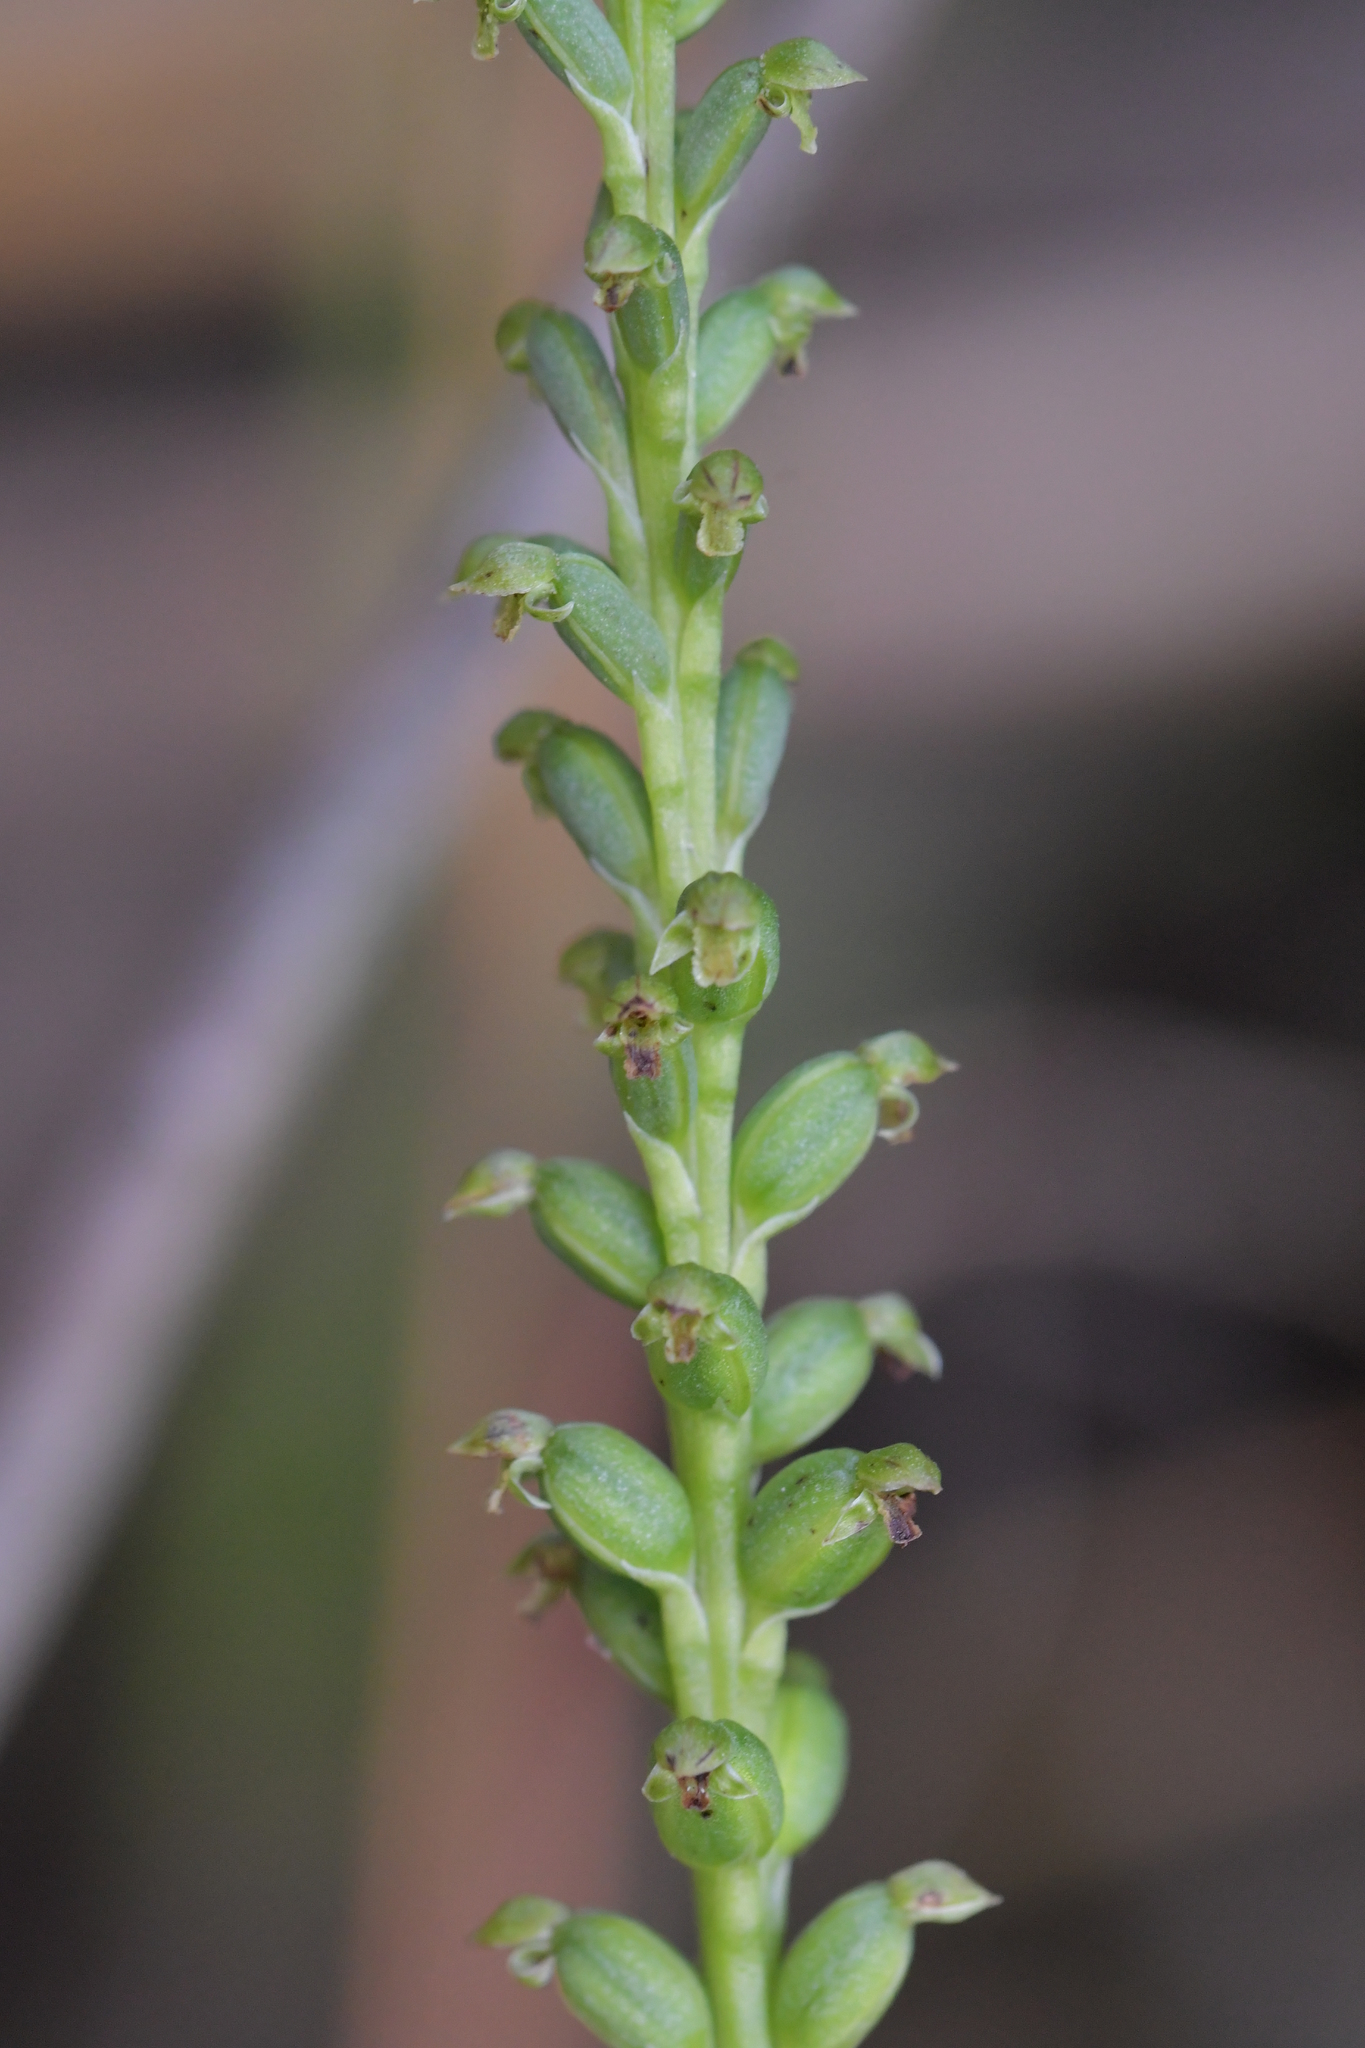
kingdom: Plantae
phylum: Tracheophyta
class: Liliopsida
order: Asparagales
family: Orchidaceae
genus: Microtis
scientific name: Microtis unifolia
